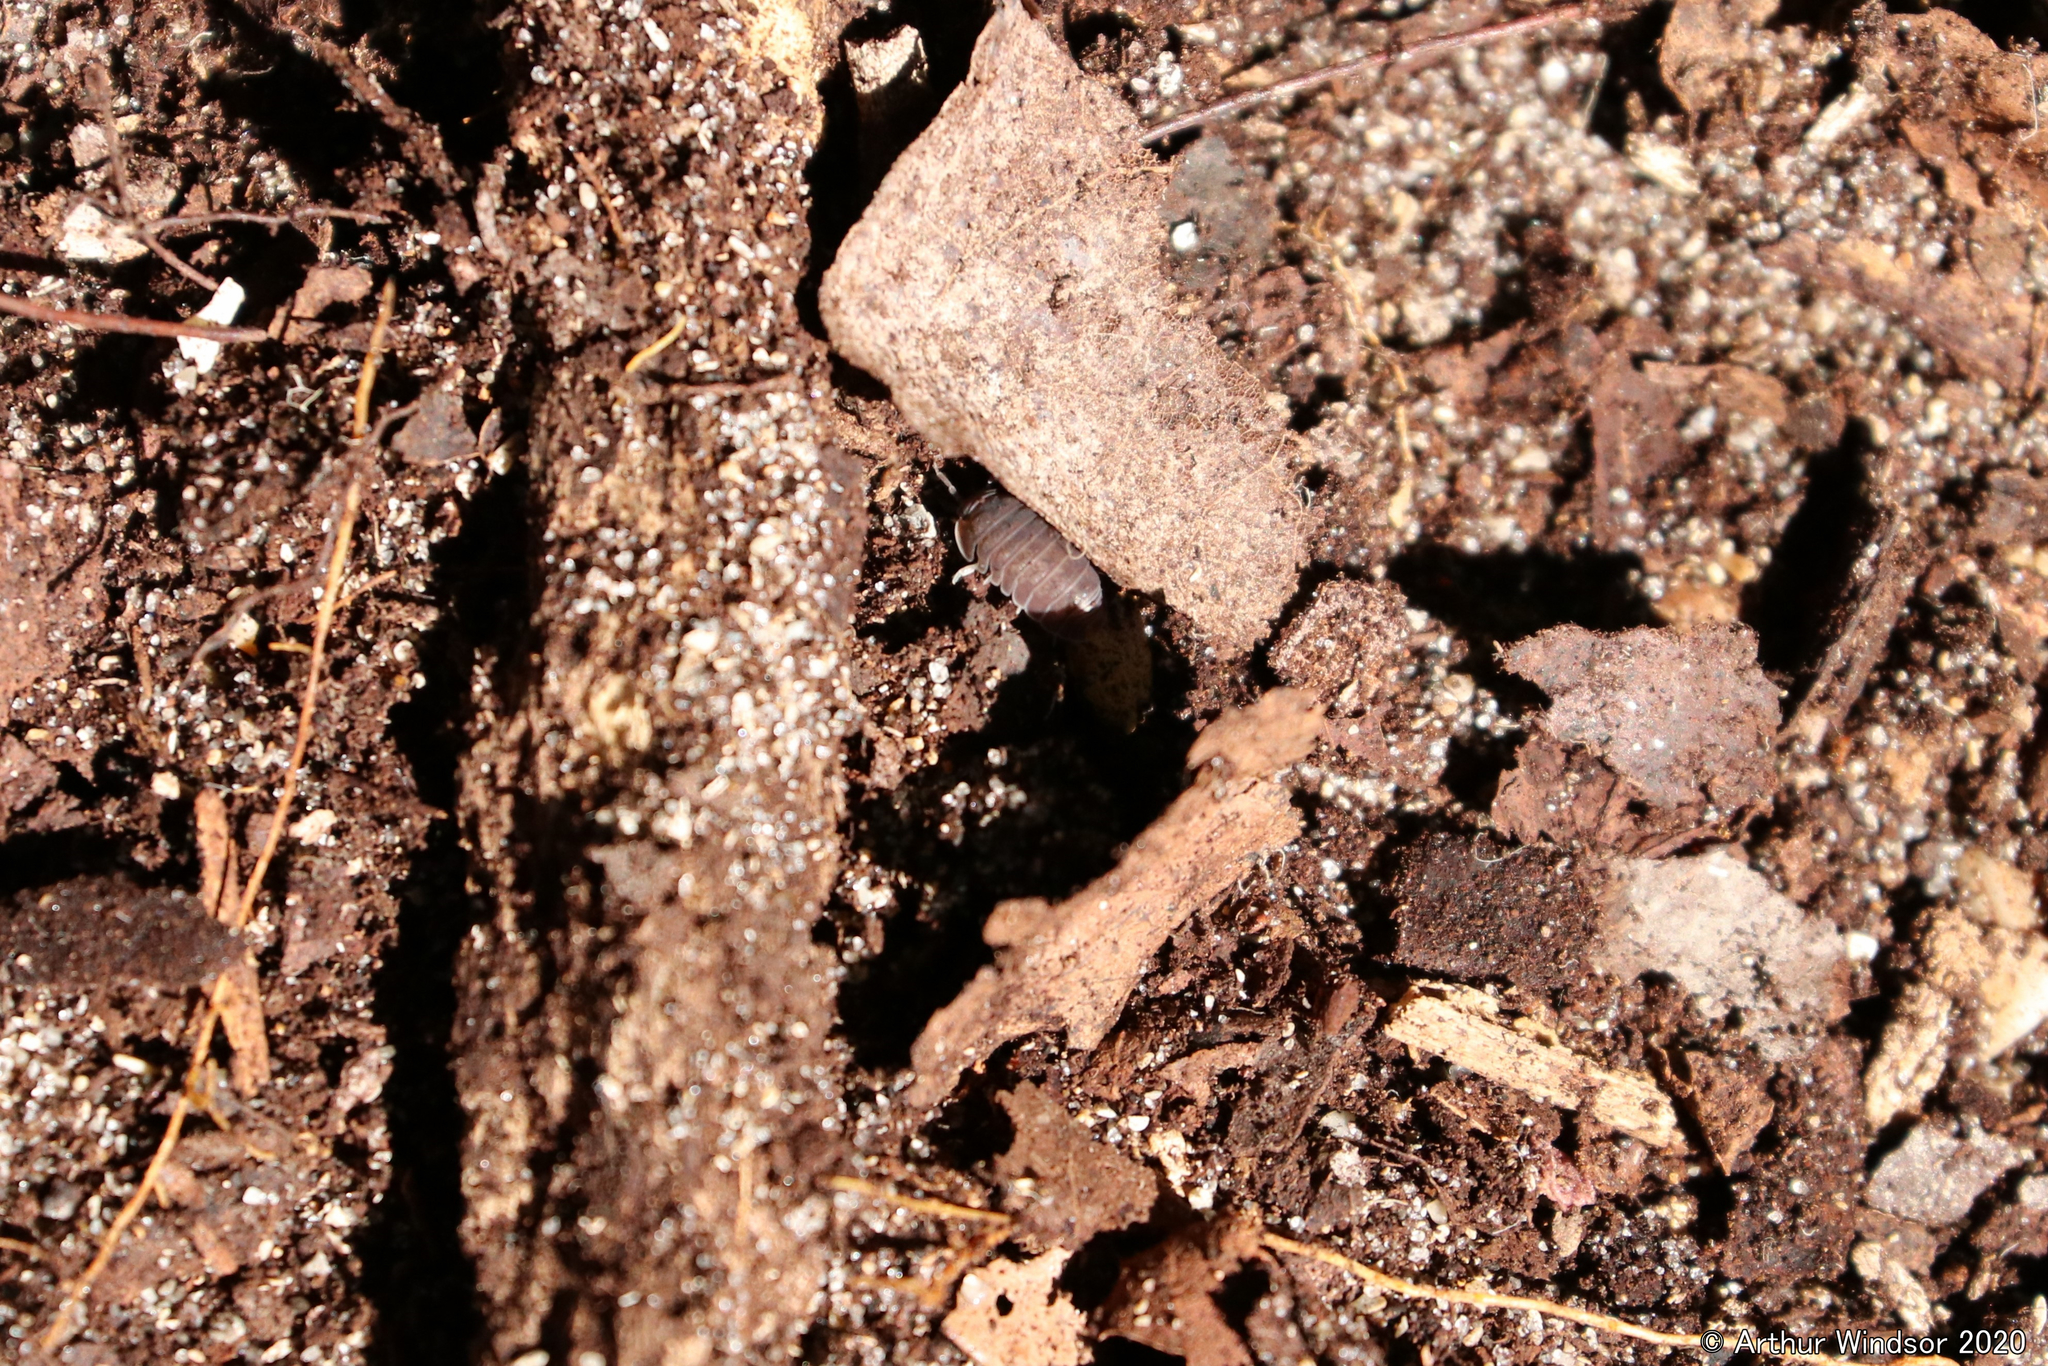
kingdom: Animalia
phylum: Arthropoda
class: Malacostraca
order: Isopoda
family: Armadillidae
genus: Cubaris
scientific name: Cubaris murina
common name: Pillbug
